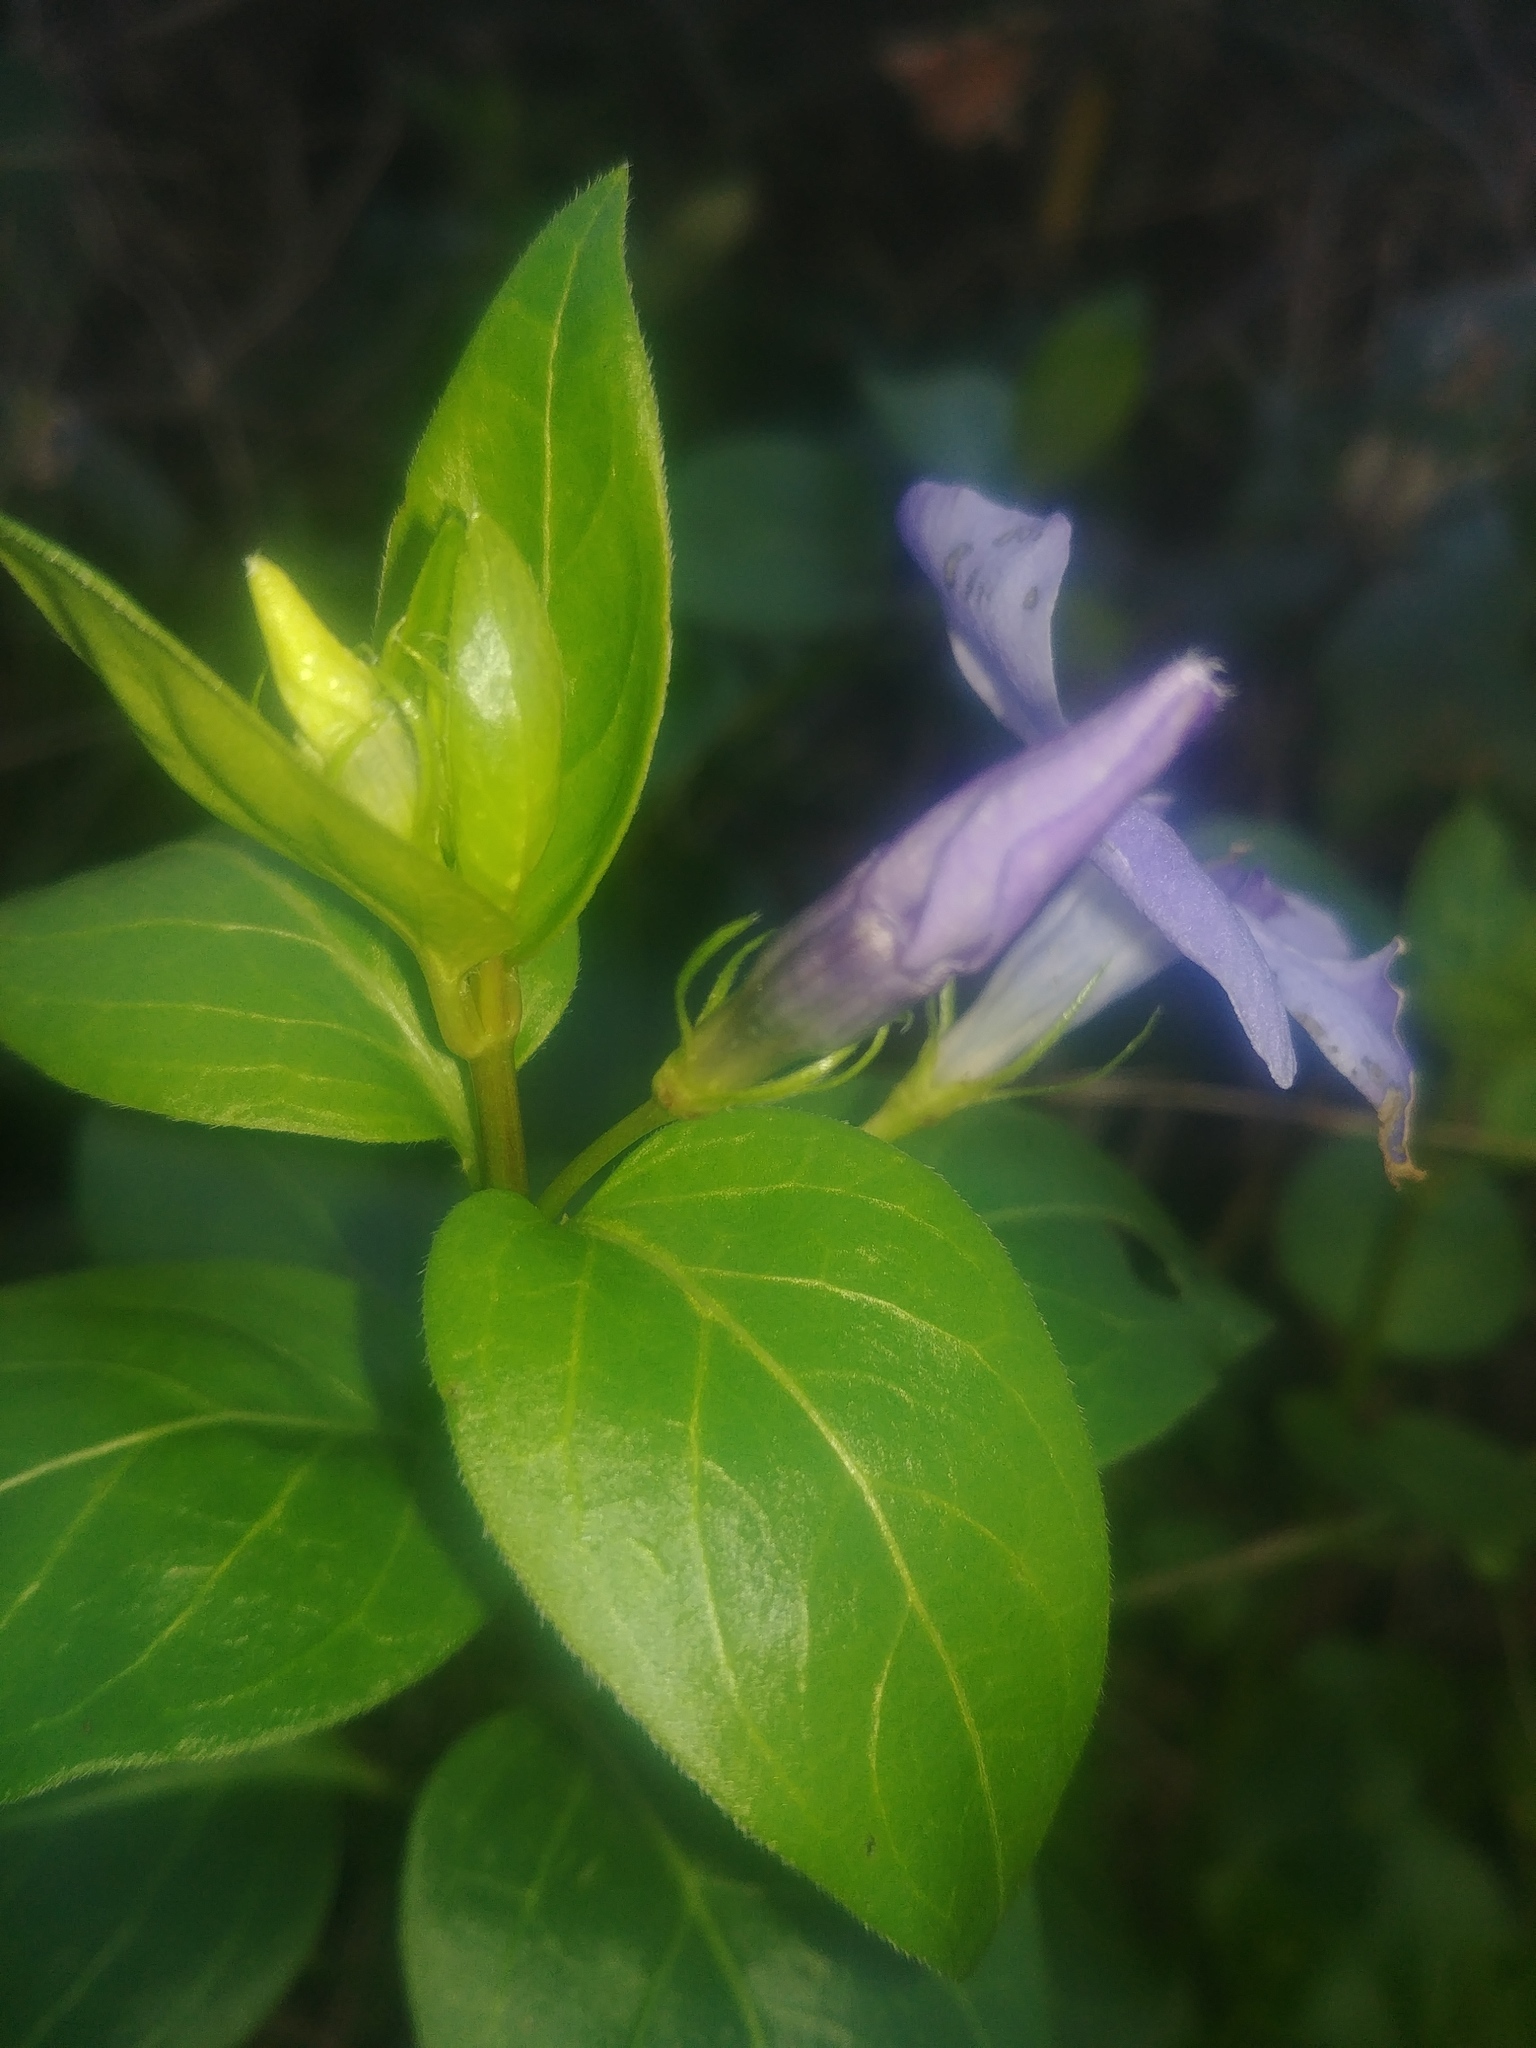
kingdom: Plantae
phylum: Tracheophyta
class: Magnoliopsida
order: Gentianales
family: Apocynaceae
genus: Vinca
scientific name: Vinca major
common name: Greater periwinkle
